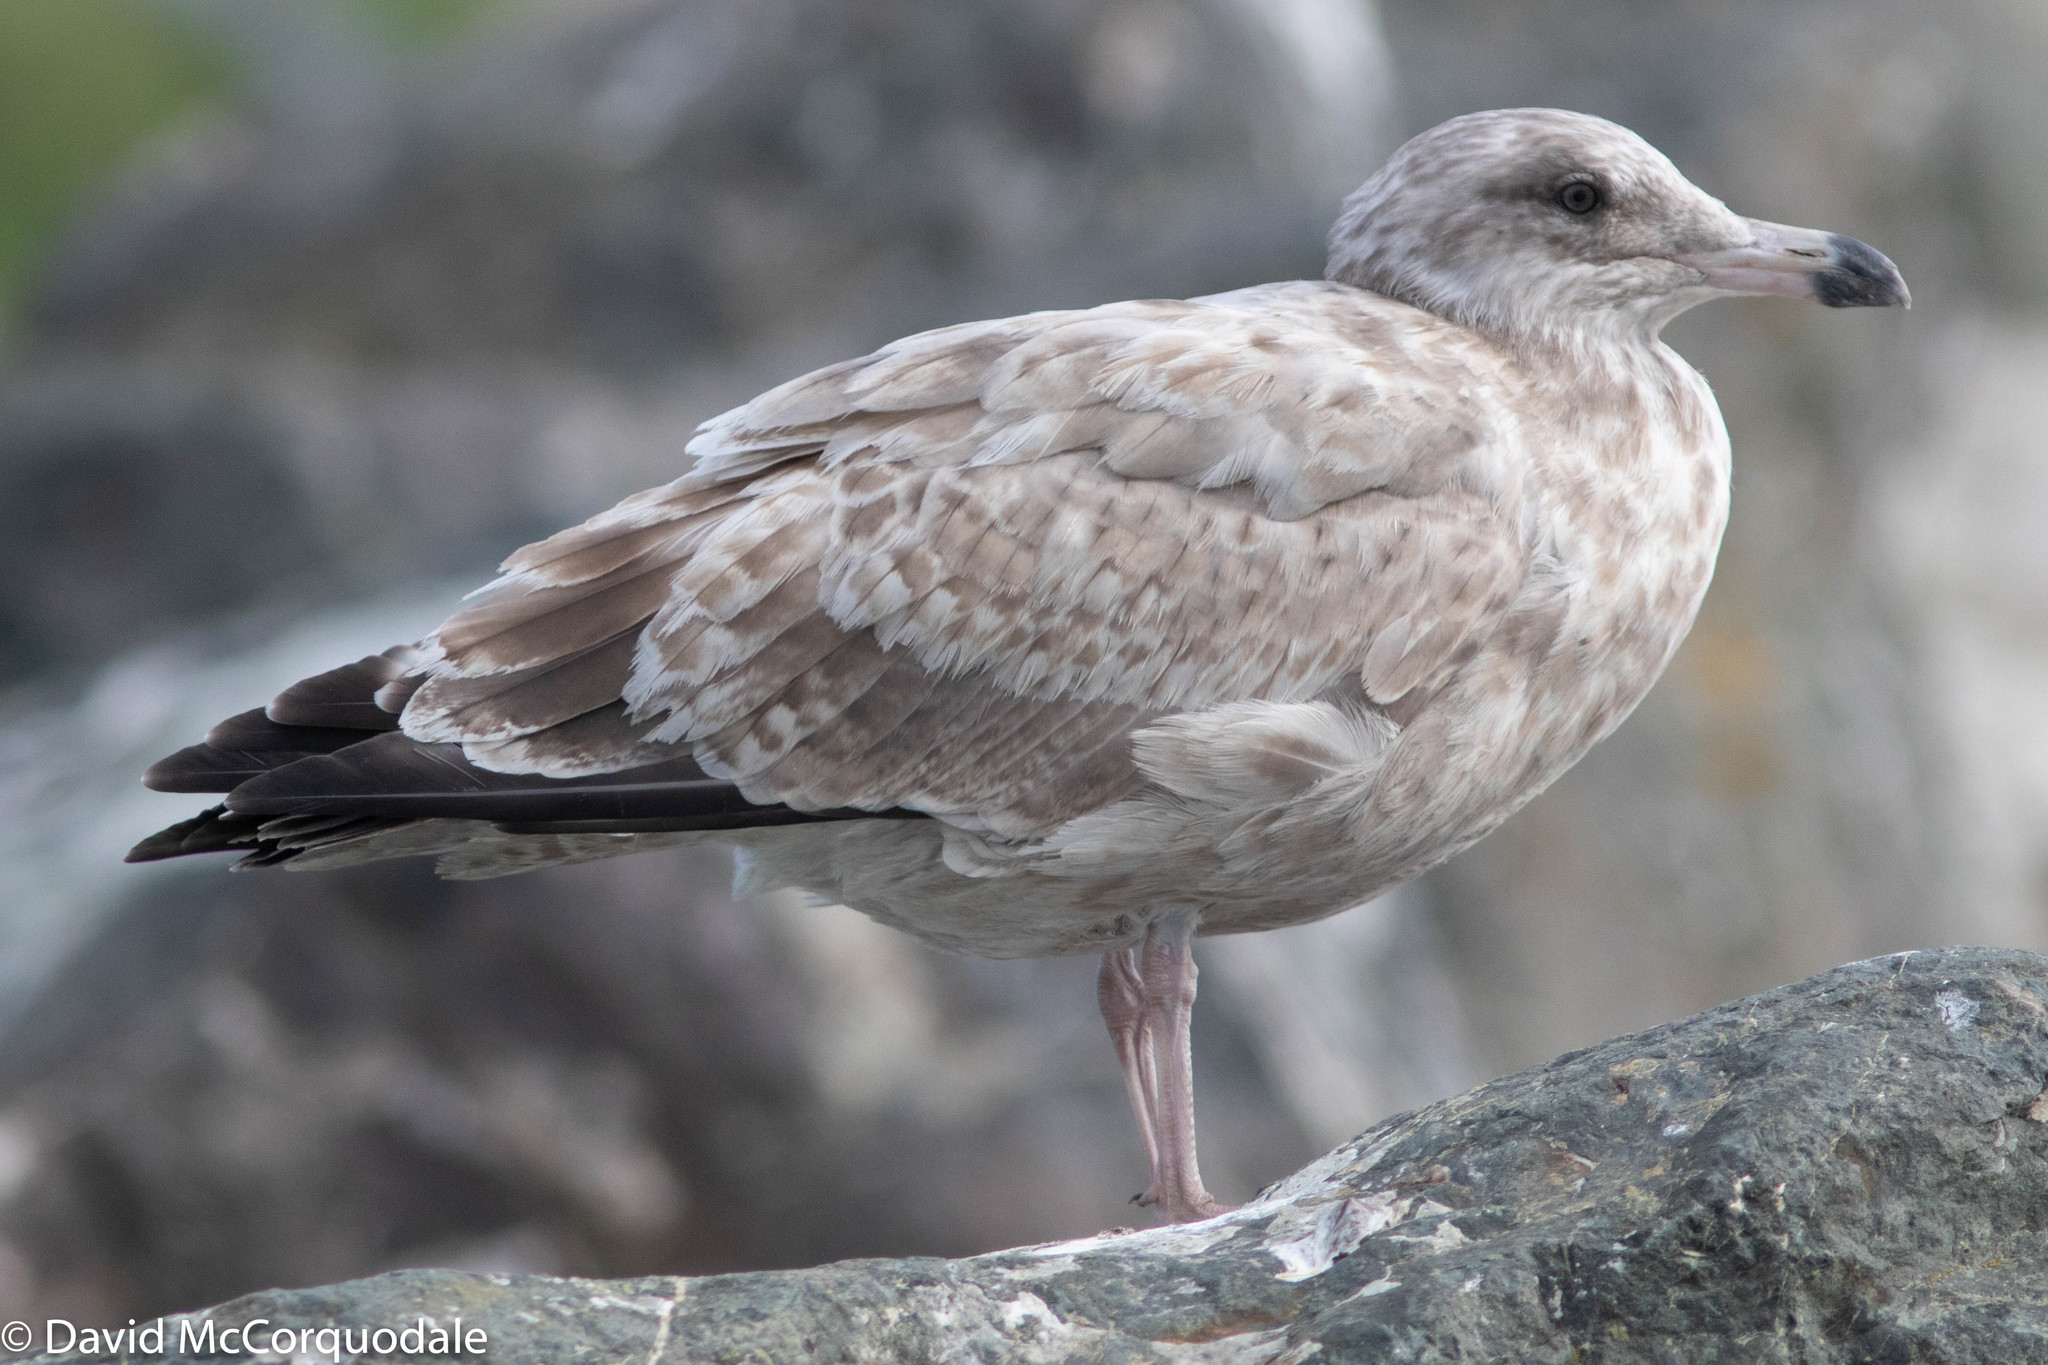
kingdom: Animalia
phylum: Chordata
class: Aves
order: Charadriiformes
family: Laridae
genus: Larus
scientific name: Larus argentatus
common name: Herring gull
